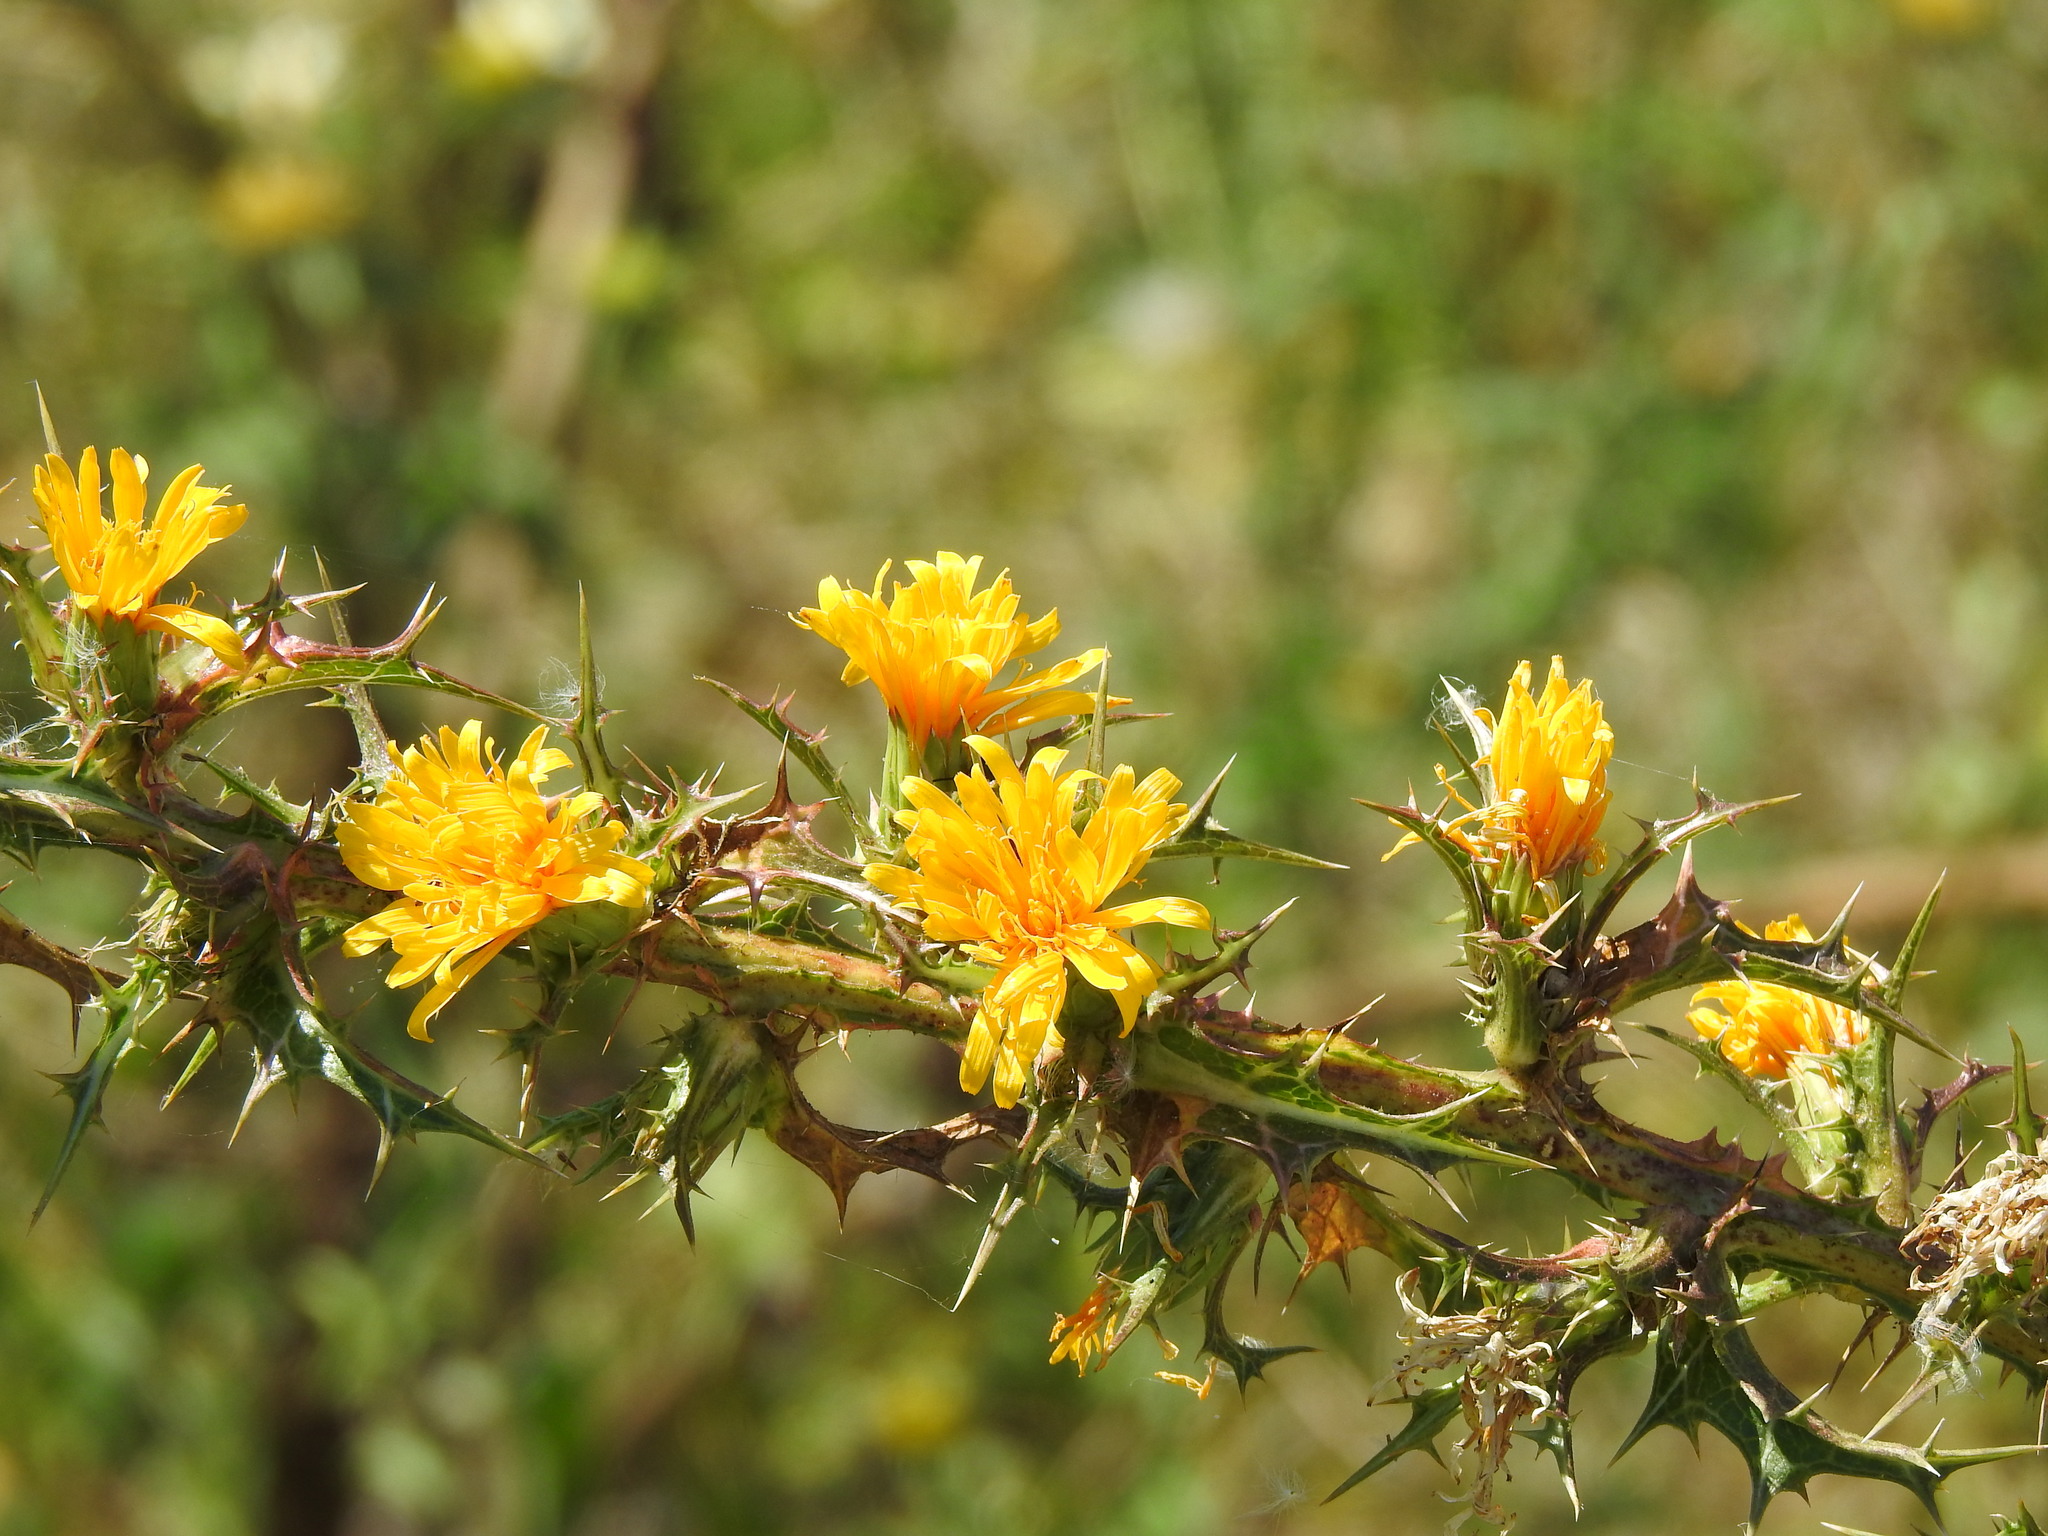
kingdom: Plantae
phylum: Tracheophyta
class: Magnoliopsida
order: Asterales
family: Asteraceae
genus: Scolymus
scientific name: Scolymus hispanicus
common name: Golden thistle
